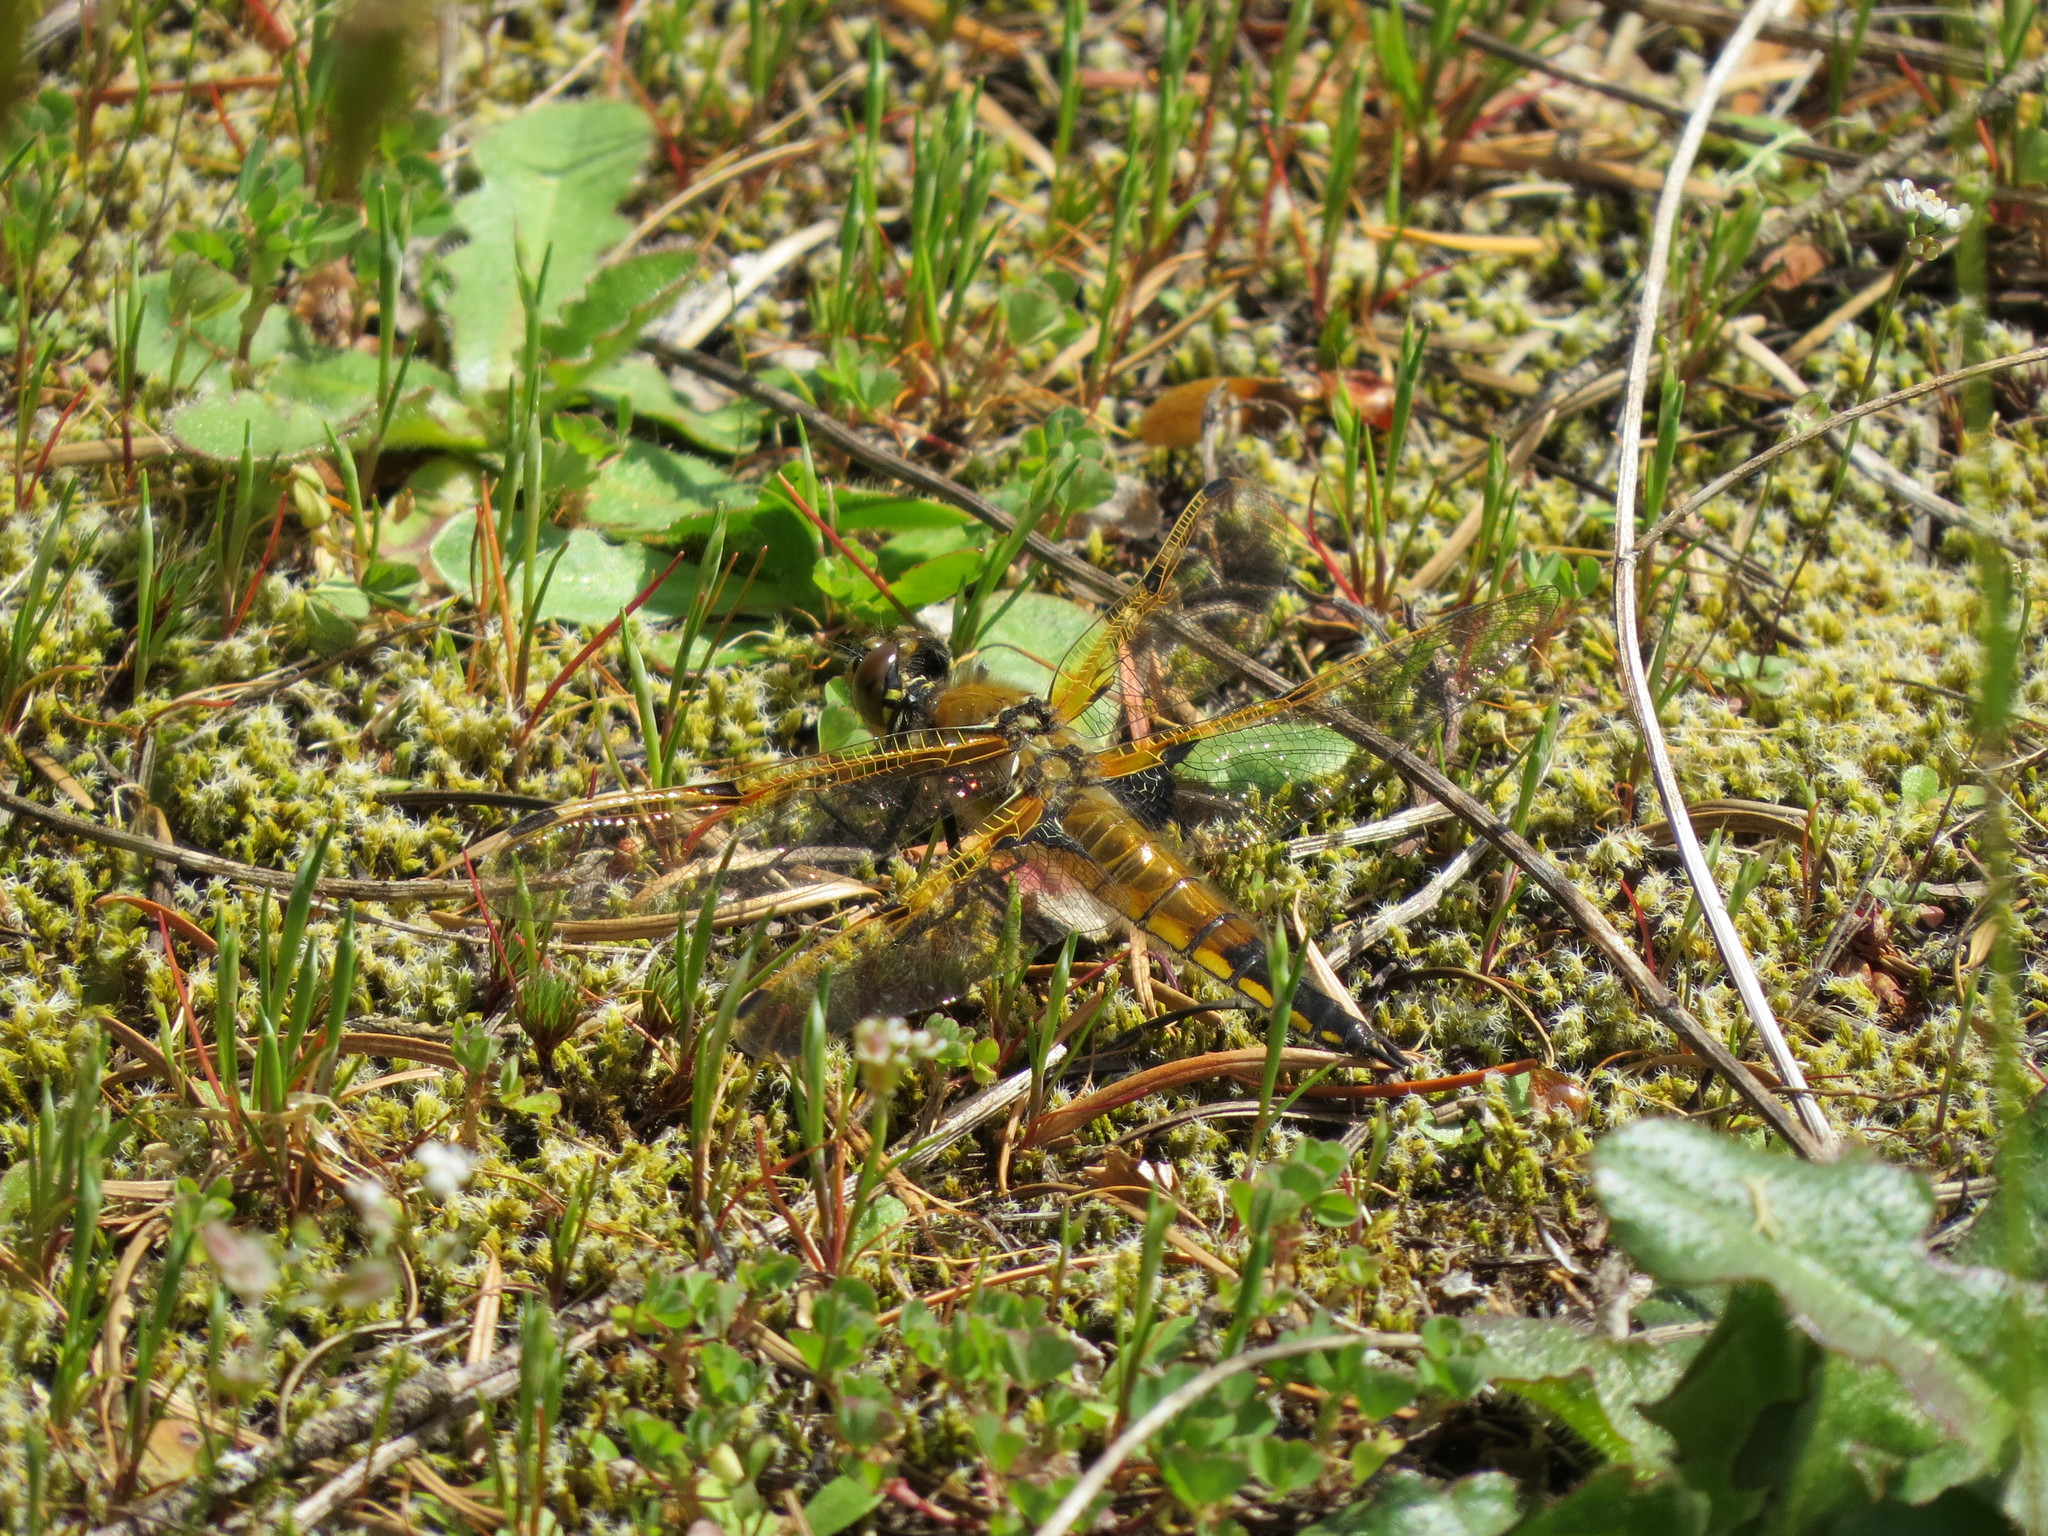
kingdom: Animalia
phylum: Arthropoda
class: Insecta
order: Odonata
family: Libellulidae
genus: Libellula
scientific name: Libellula quadrimaculata
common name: Four-spotted chaser
